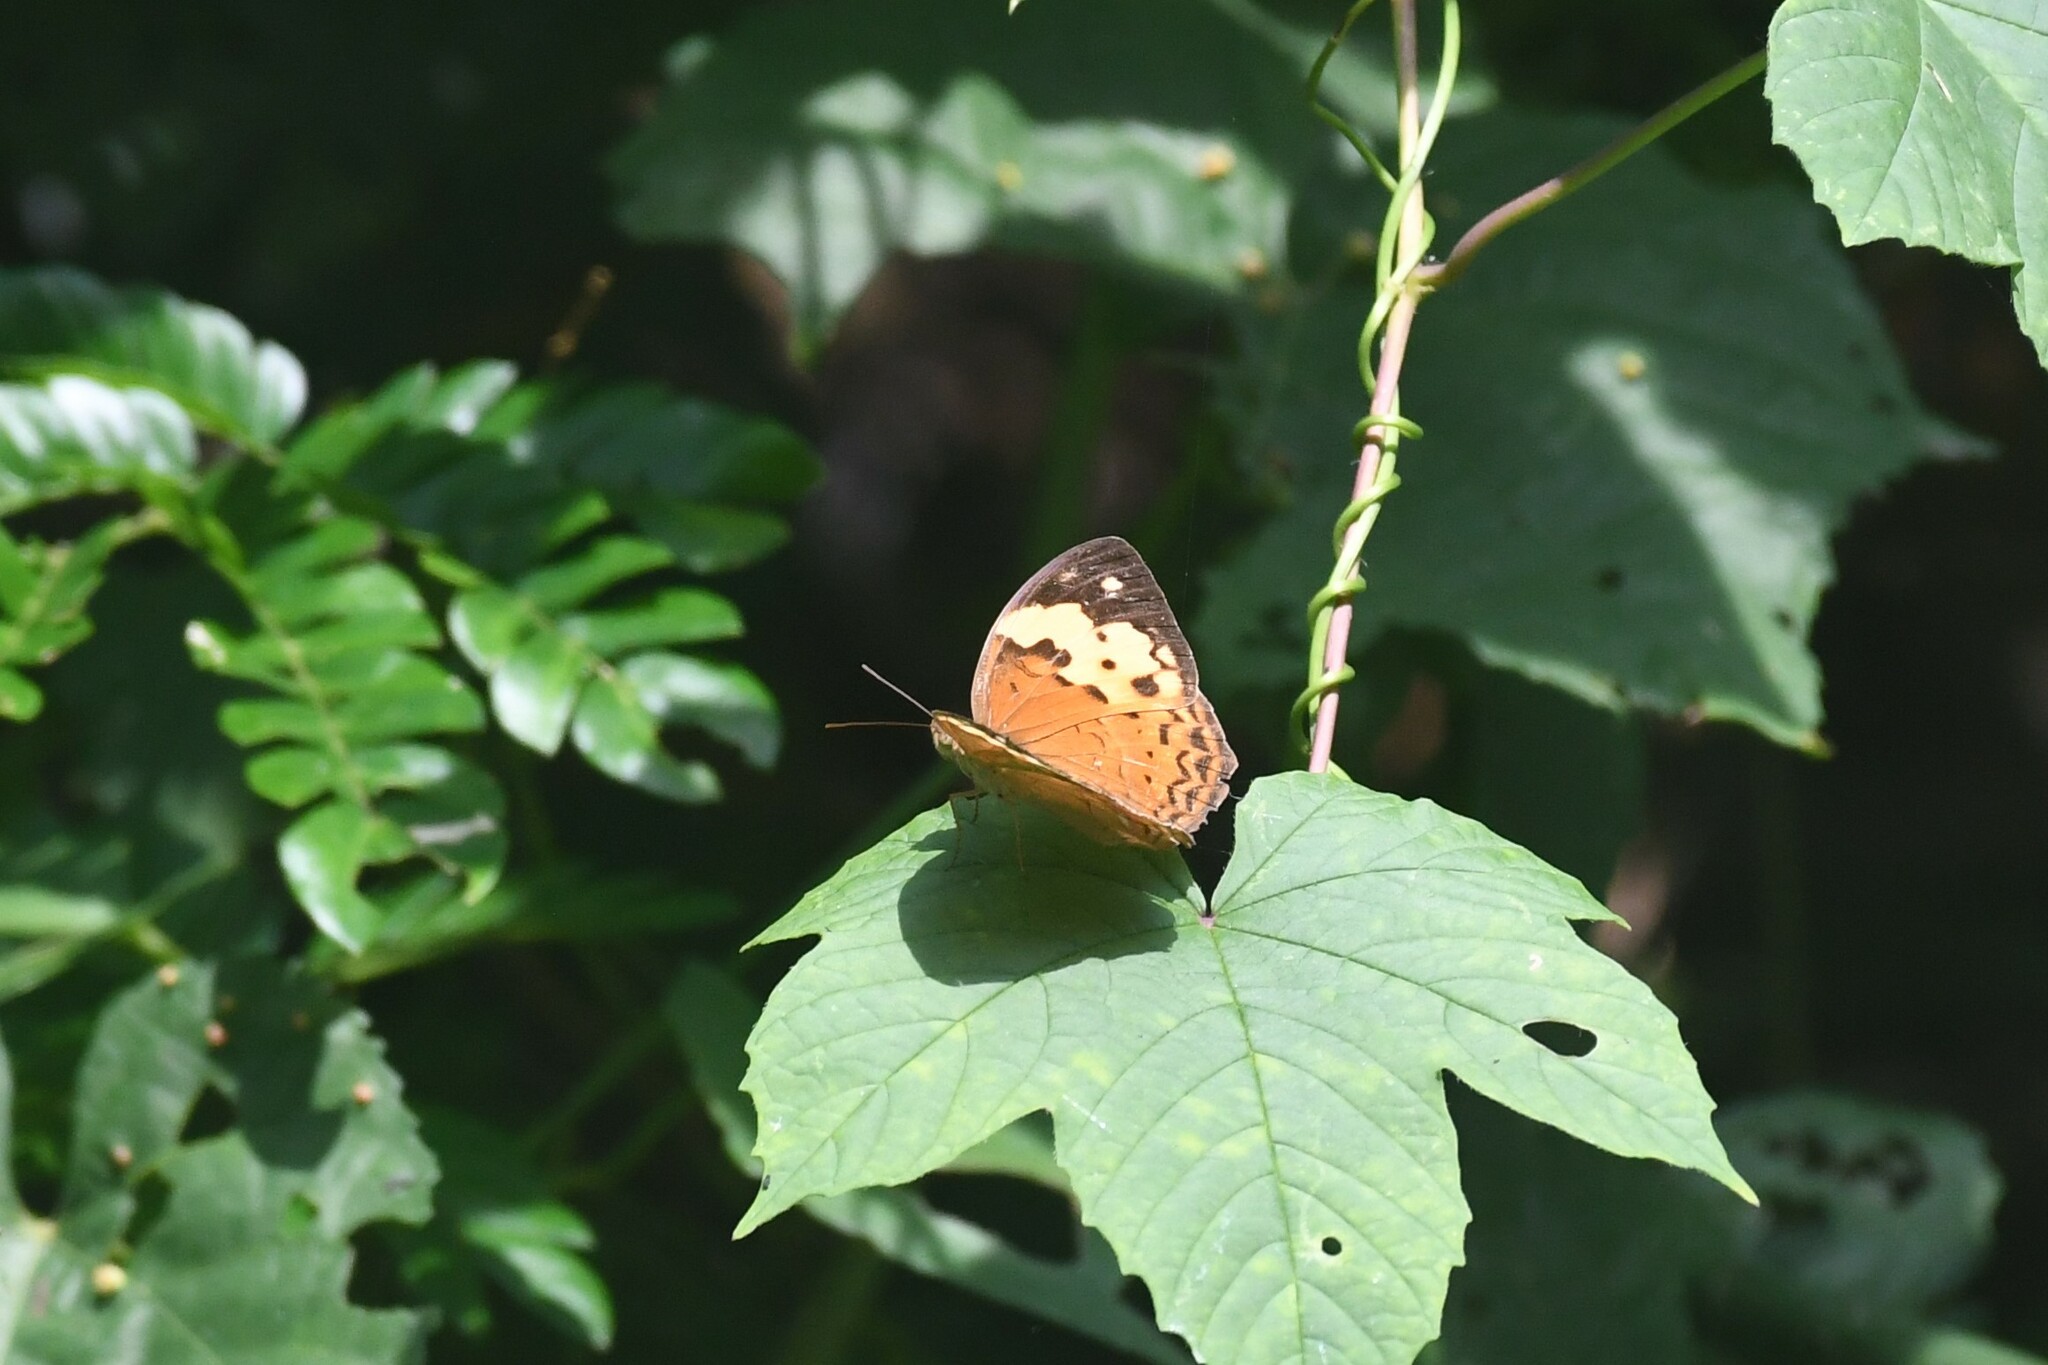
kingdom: Animalia
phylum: Arthropoda
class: Insecta
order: Lepidoptera
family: Nymphalidae
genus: Cupha
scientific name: Cupha erymanthis
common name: Rustic
